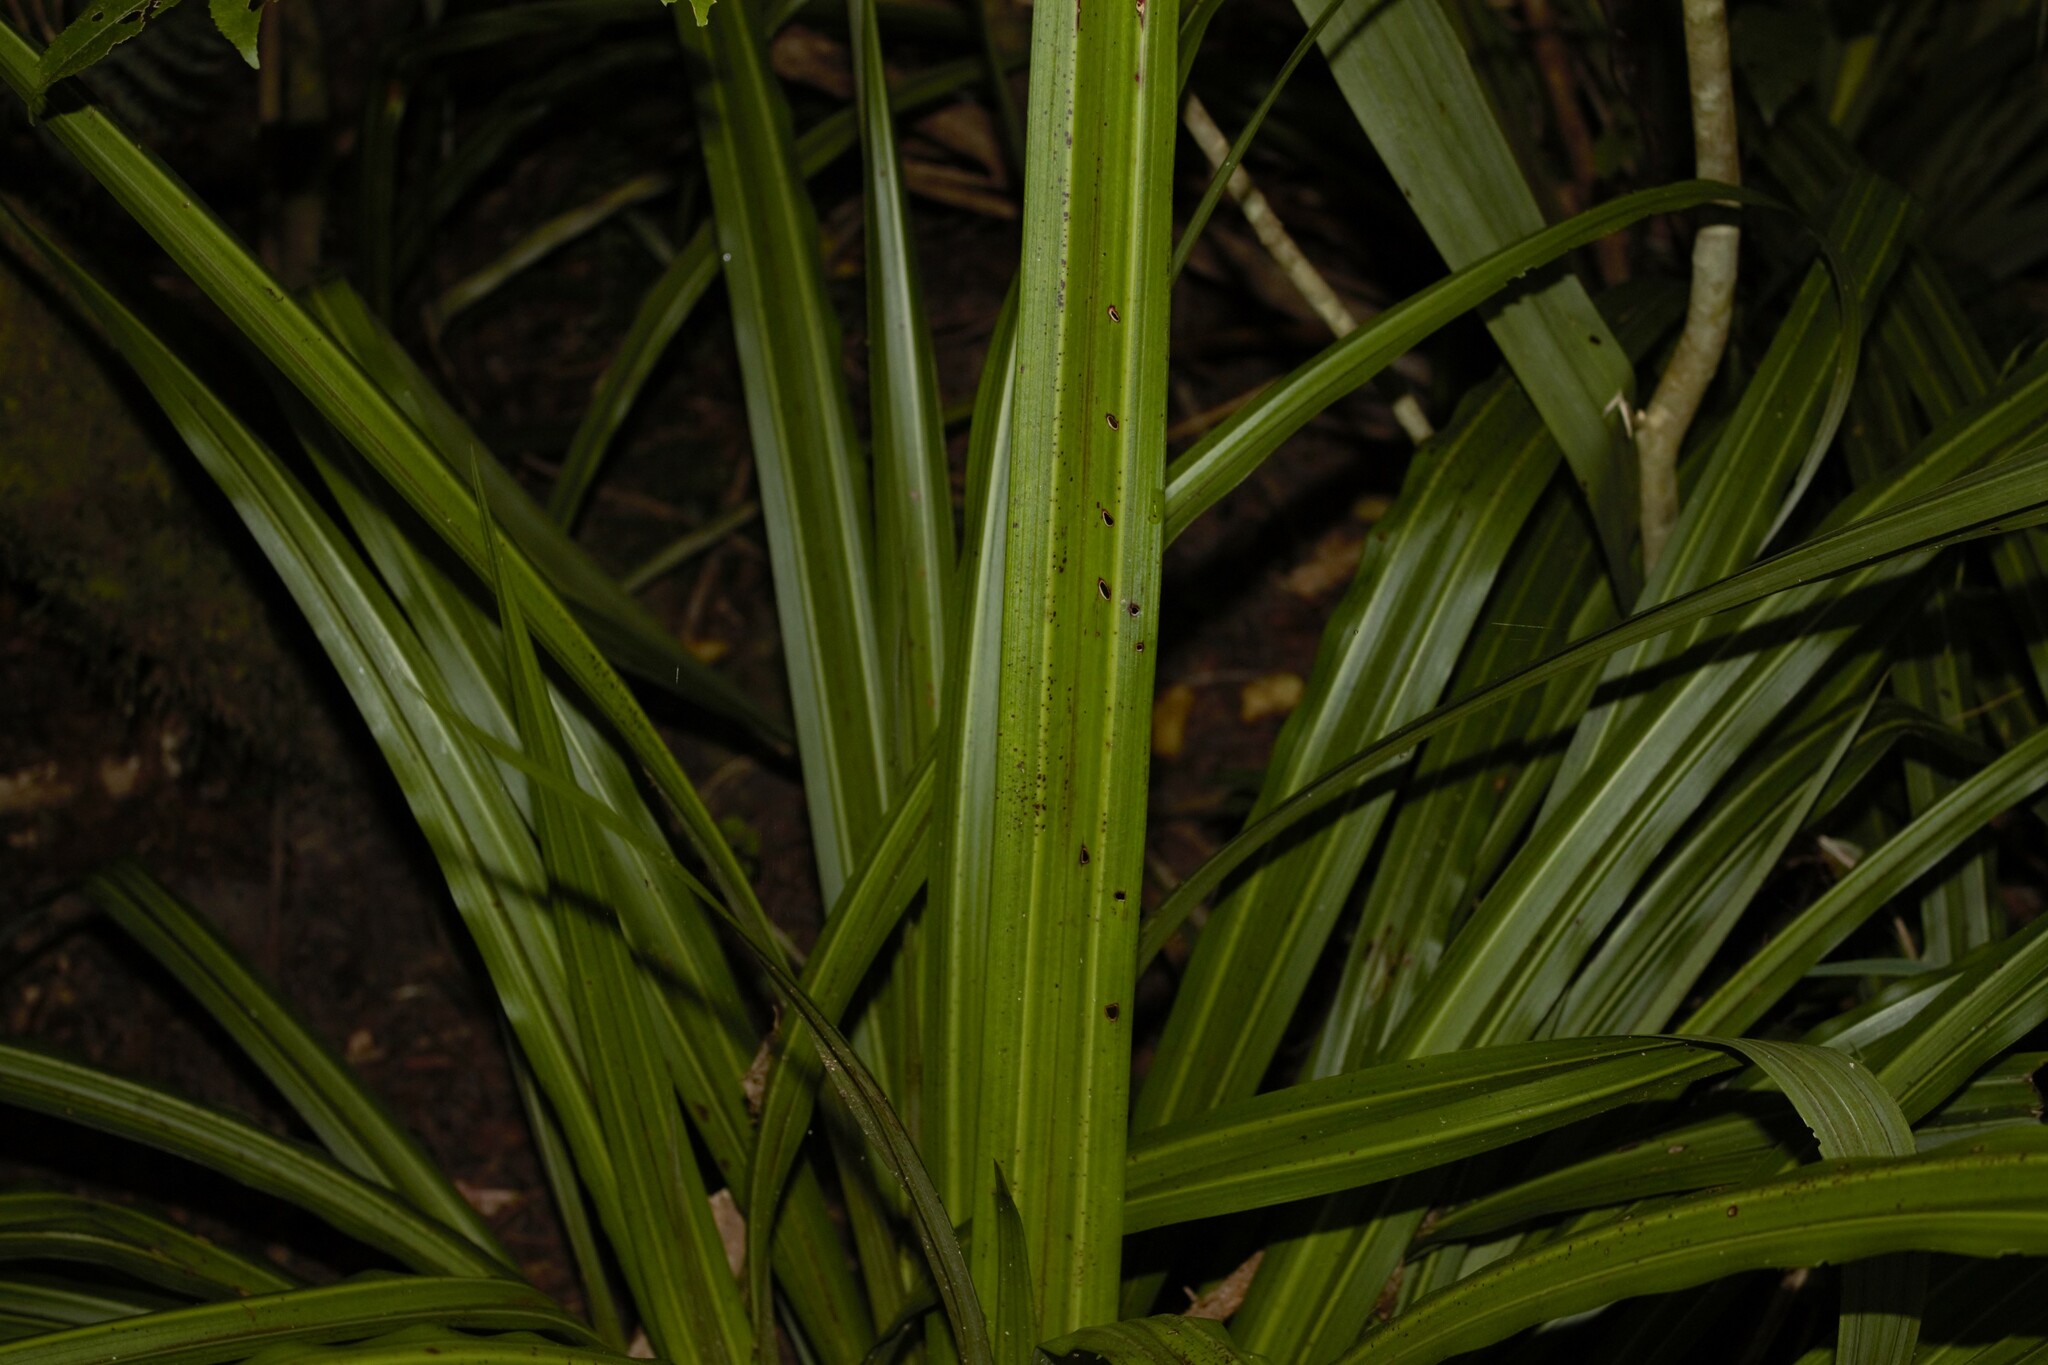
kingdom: Plantae
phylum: Tracheophyta
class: Liliopsida
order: Asparagales
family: Asteliaceae
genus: Astelia
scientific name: Astelia fragrans
